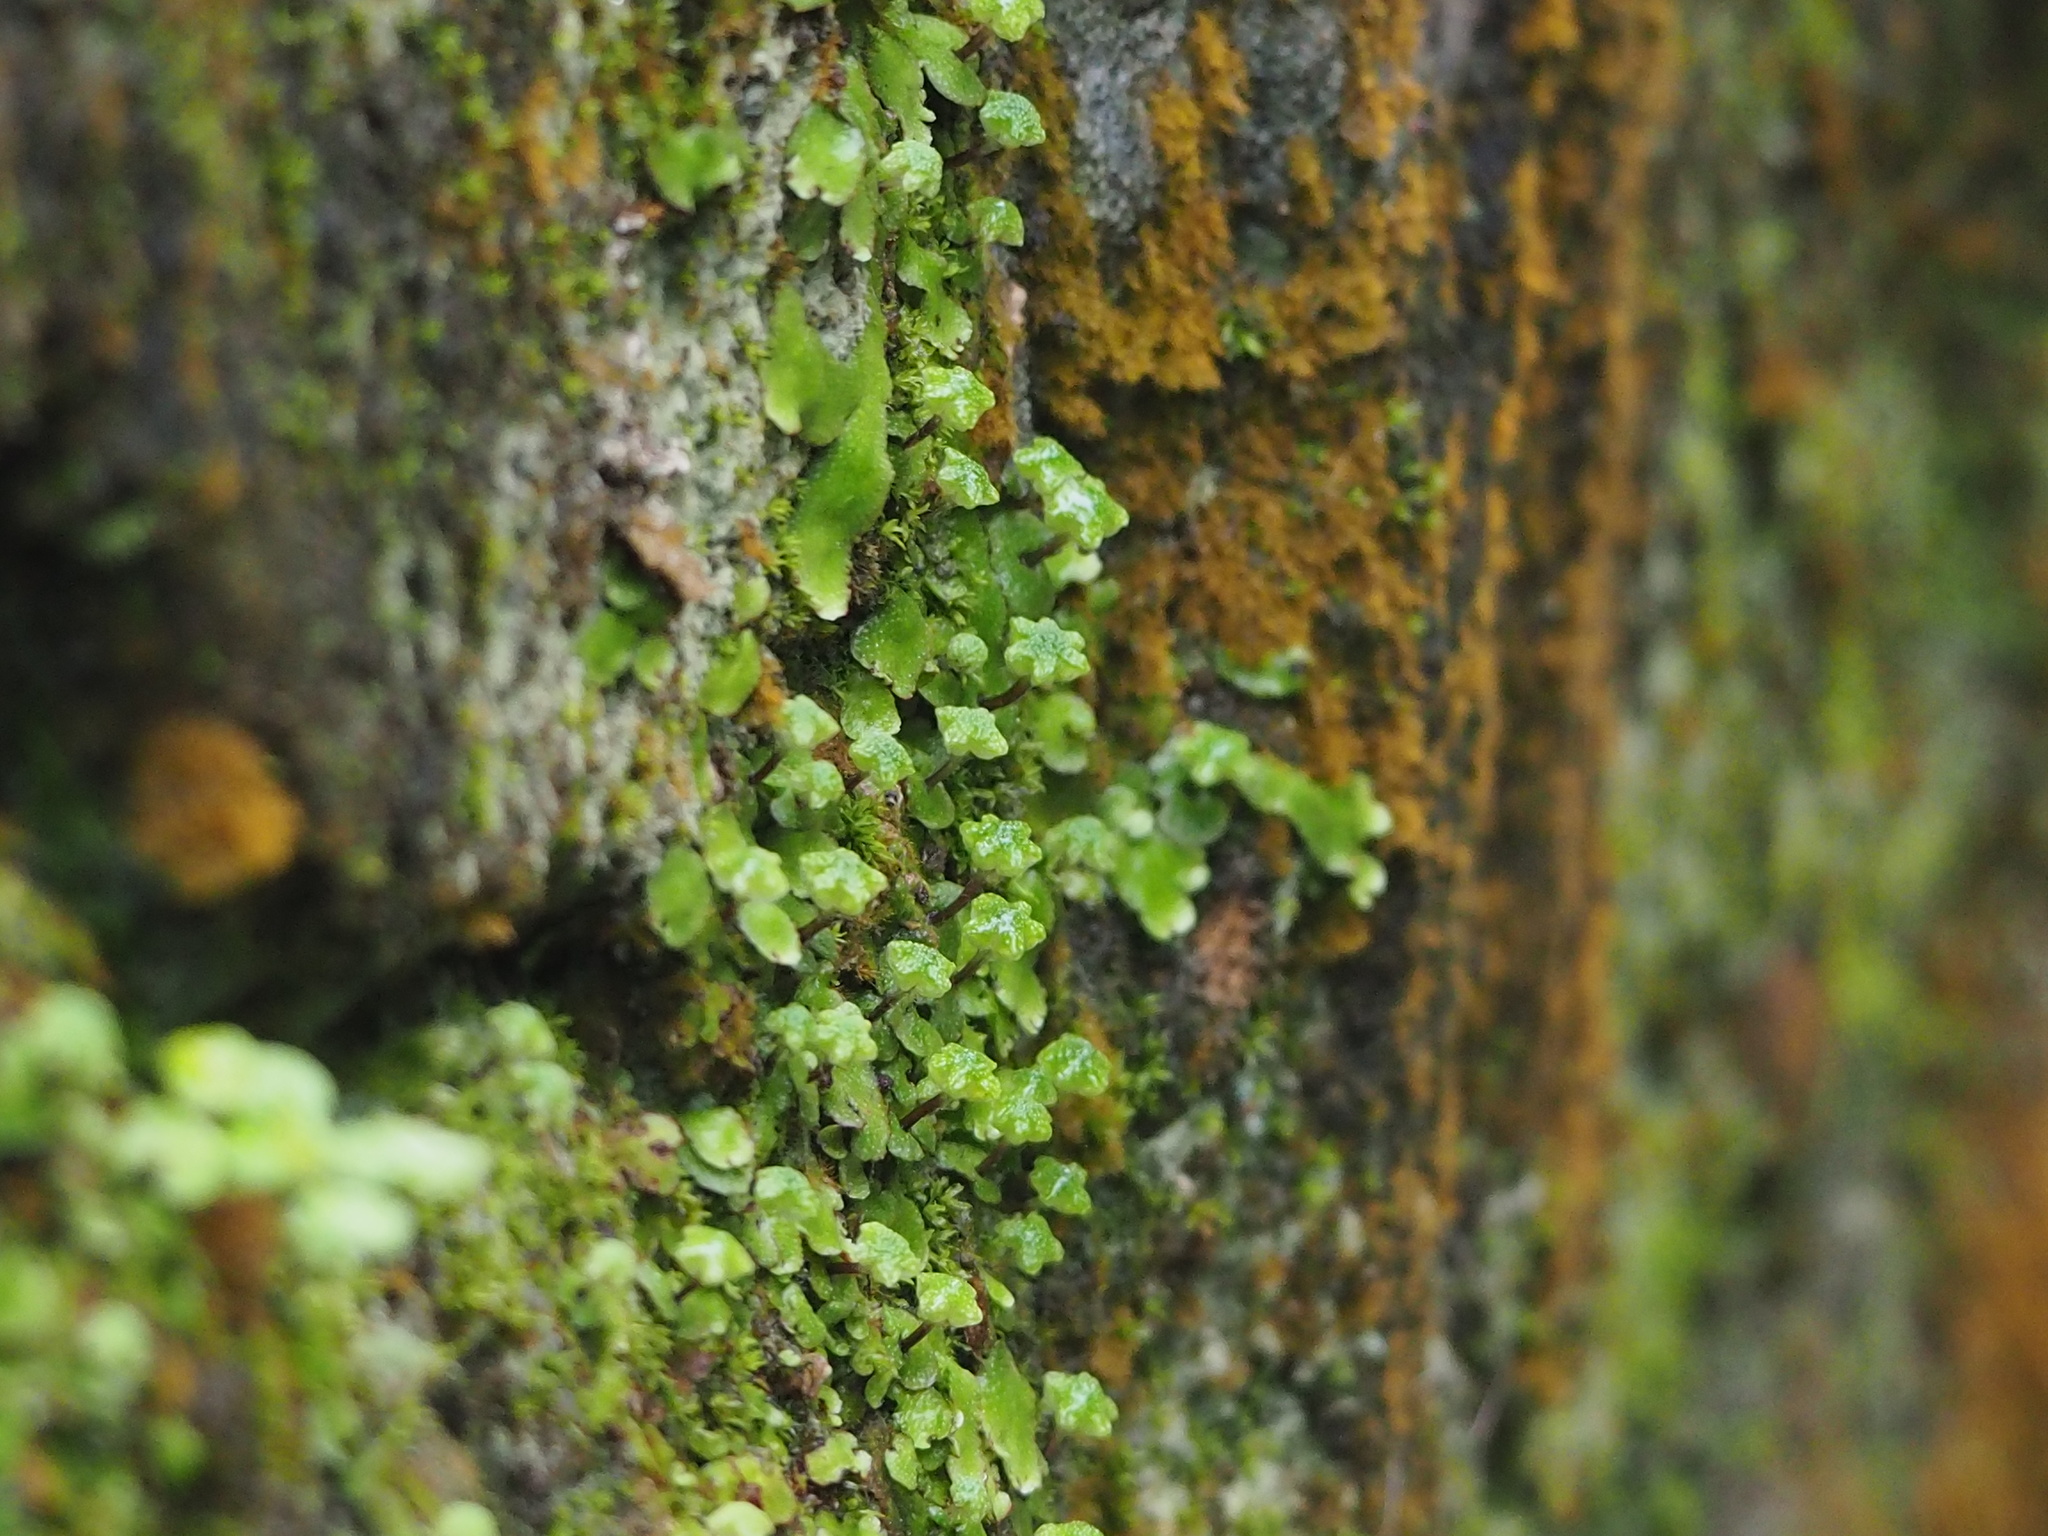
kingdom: Plantae
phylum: Marchantiophyta
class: Marchantiopsida
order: Marchantiales
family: Aytoniaceae
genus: Reboulia
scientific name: Reboulia hemisphaerica
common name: Purple-margined liverwort
